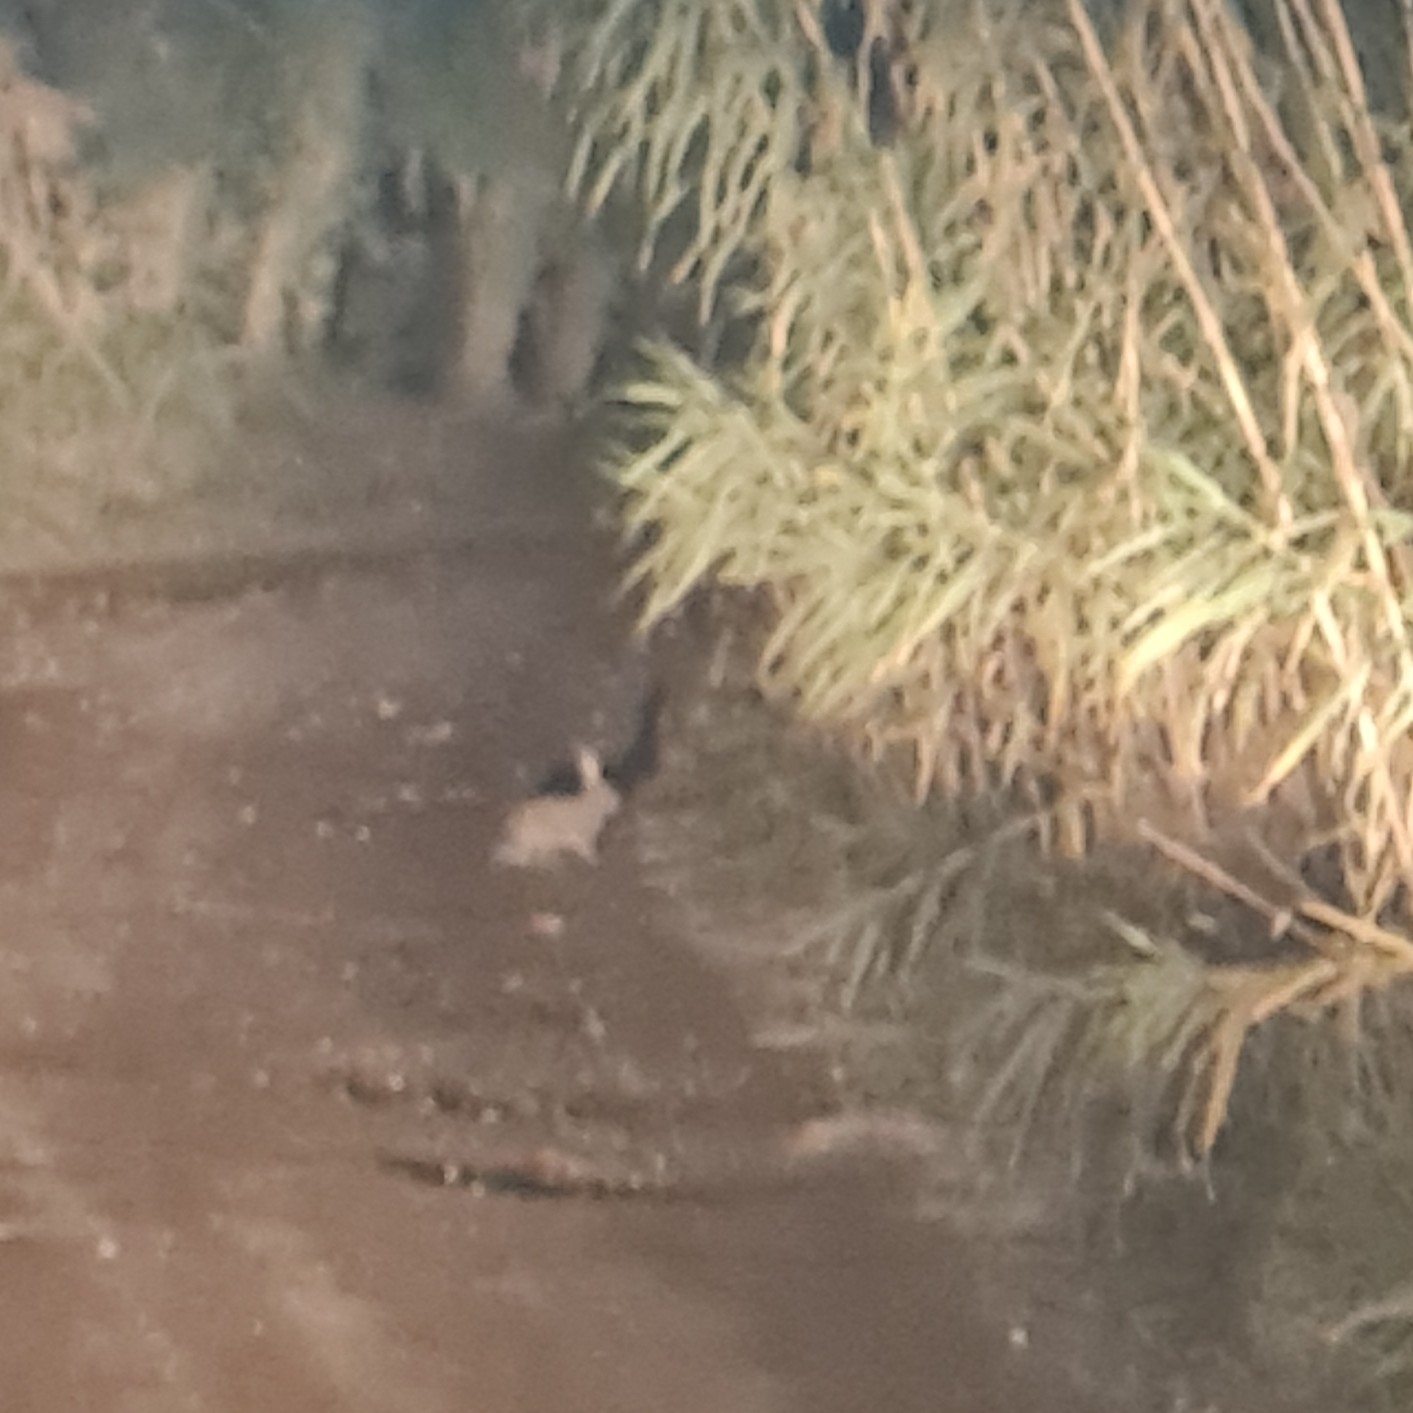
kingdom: Animalia
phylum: Chordata
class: Mammalia
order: Lagomorpha
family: Leporidae
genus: Oryctolagus
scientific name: Oryctolagus cuniculus
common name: European rabbit
